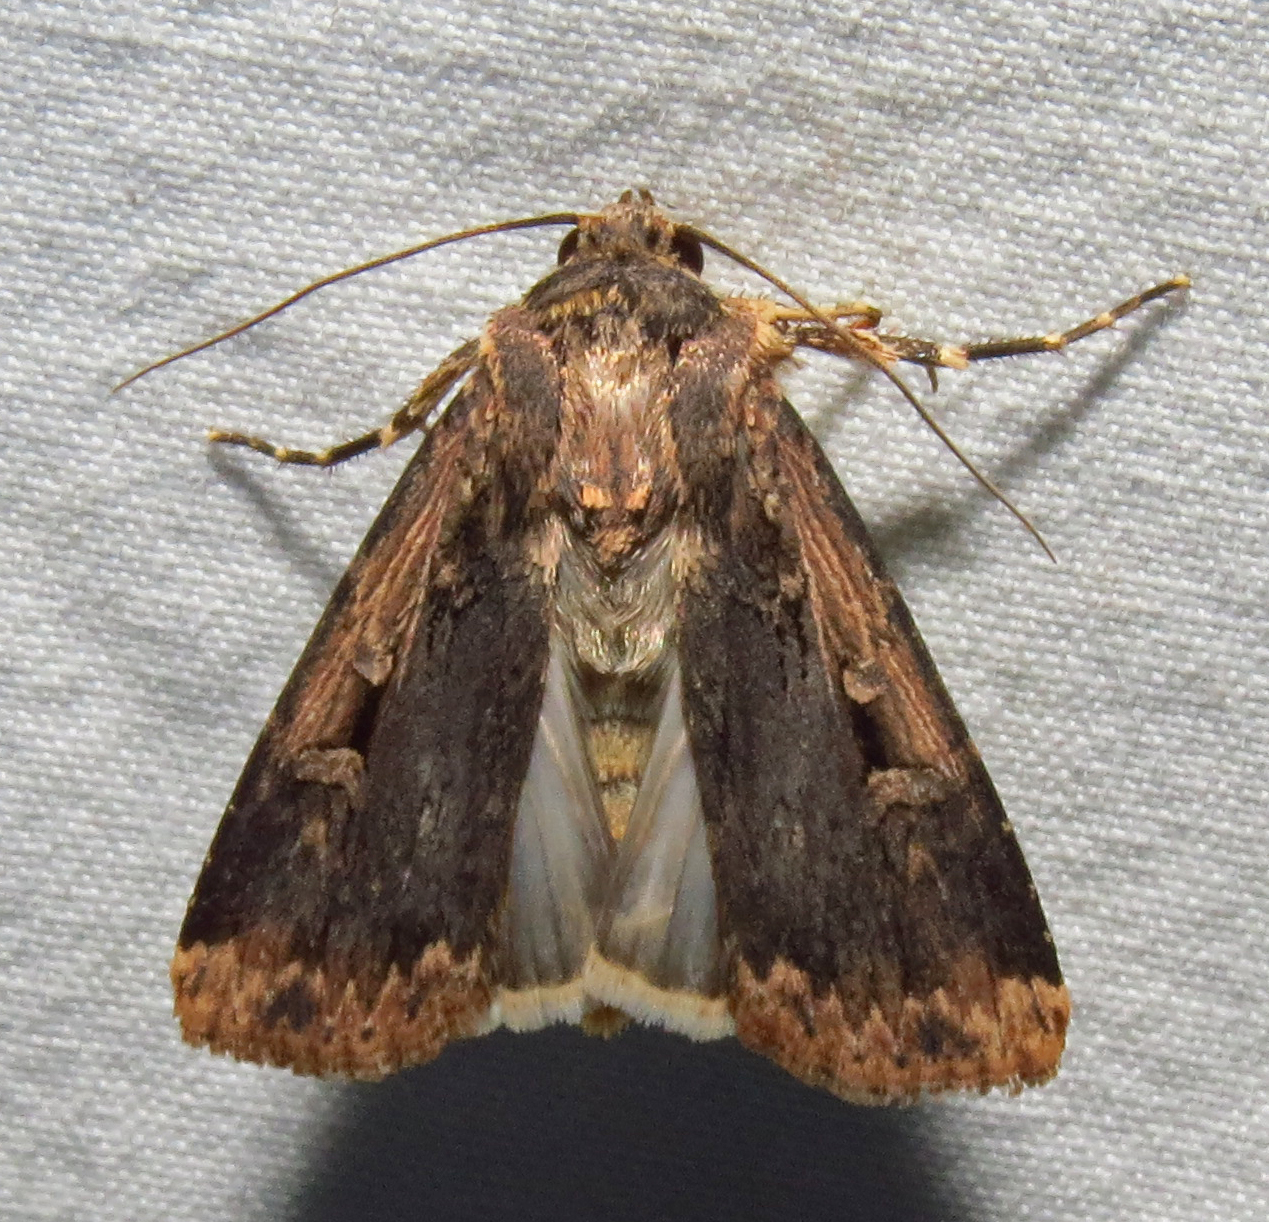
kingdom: Animalia
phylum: Arthropoda
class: Insecta
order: Lepidoptera
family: Noctuidae
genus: Feltia
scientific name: Feltia subterranea
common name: Granulate cutworm
